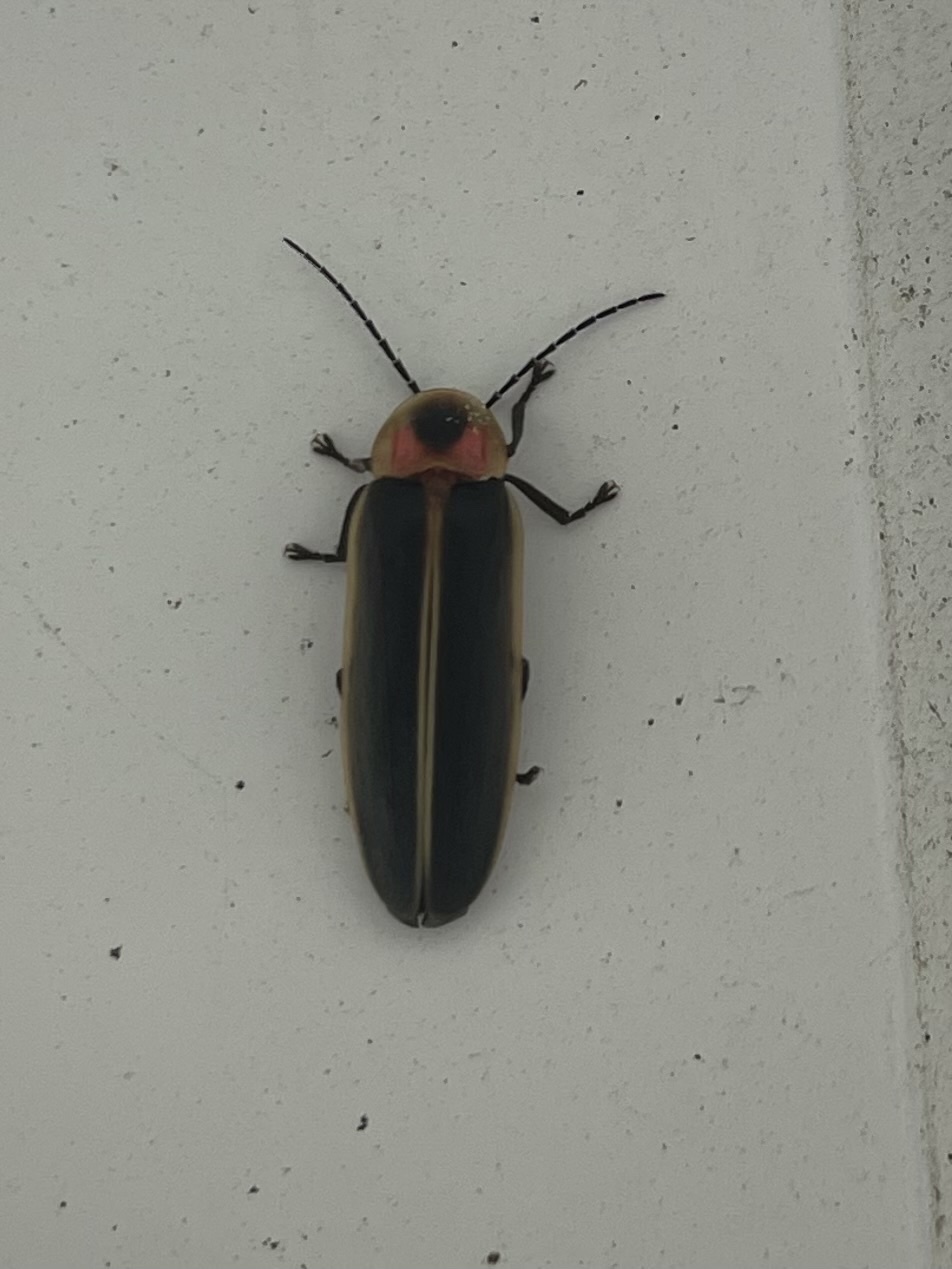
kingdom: Animalia
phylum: Arthropoda
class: Insecta
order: Coleoptera
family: Lampyridae
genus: Photinus
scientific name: Photinus pyralis
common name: Big dipper firefly
